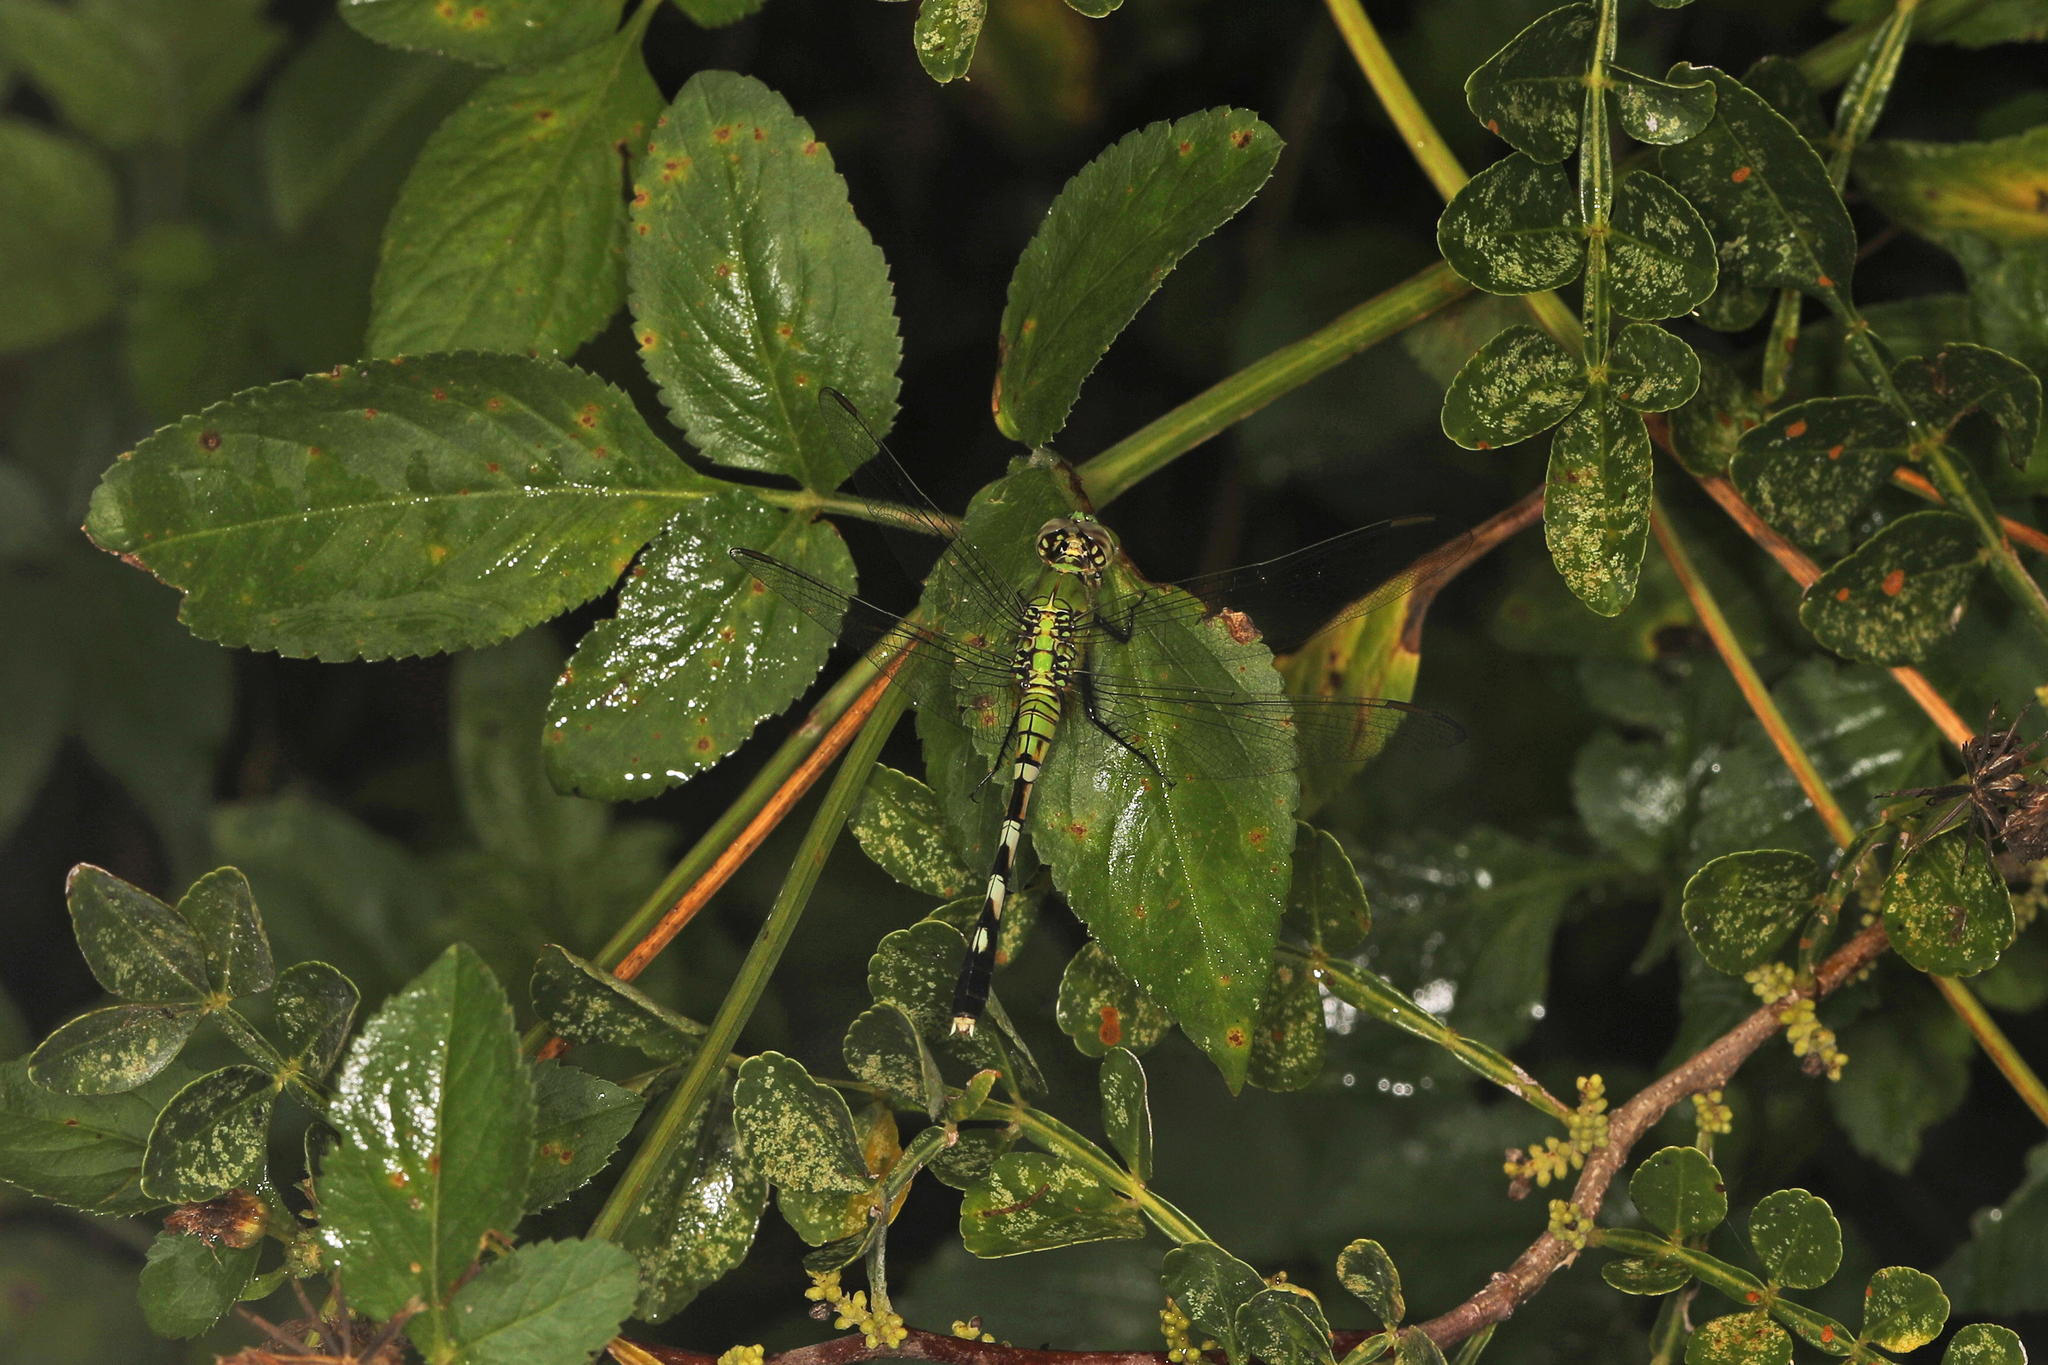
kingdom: Animalia
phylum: Arthropoda
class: Insecta
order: Odonata
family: Libellulidae
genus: Erythemis
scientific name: Erythemis simplicicollis
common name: Eastern pondhawk
